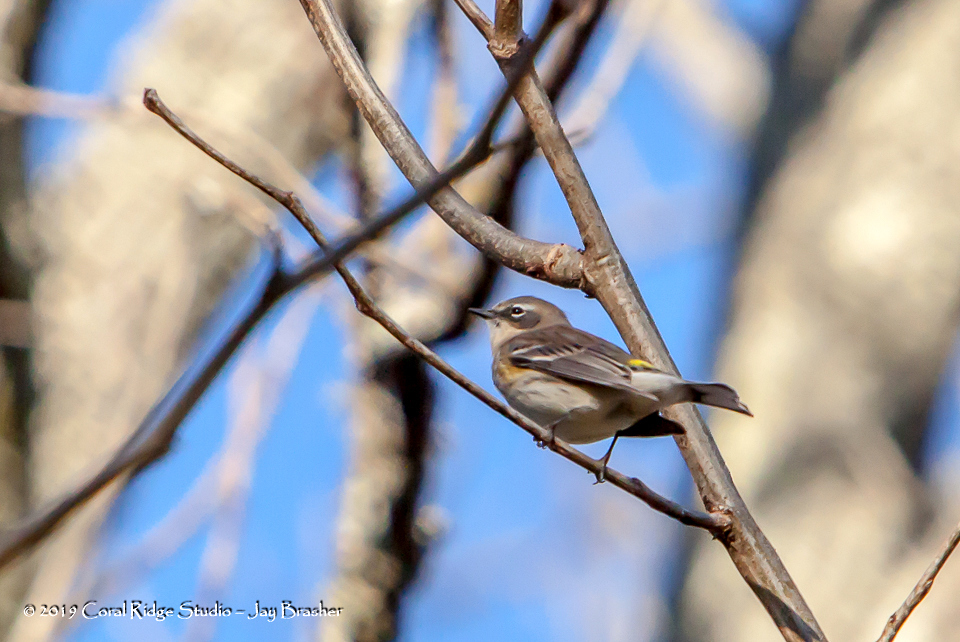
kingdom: Animalia
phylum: Chordata
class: Aves
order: Passeriformes
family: Parulidae
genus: Setophaga
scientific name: Setophaga coronata
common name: Myrtle warbler
